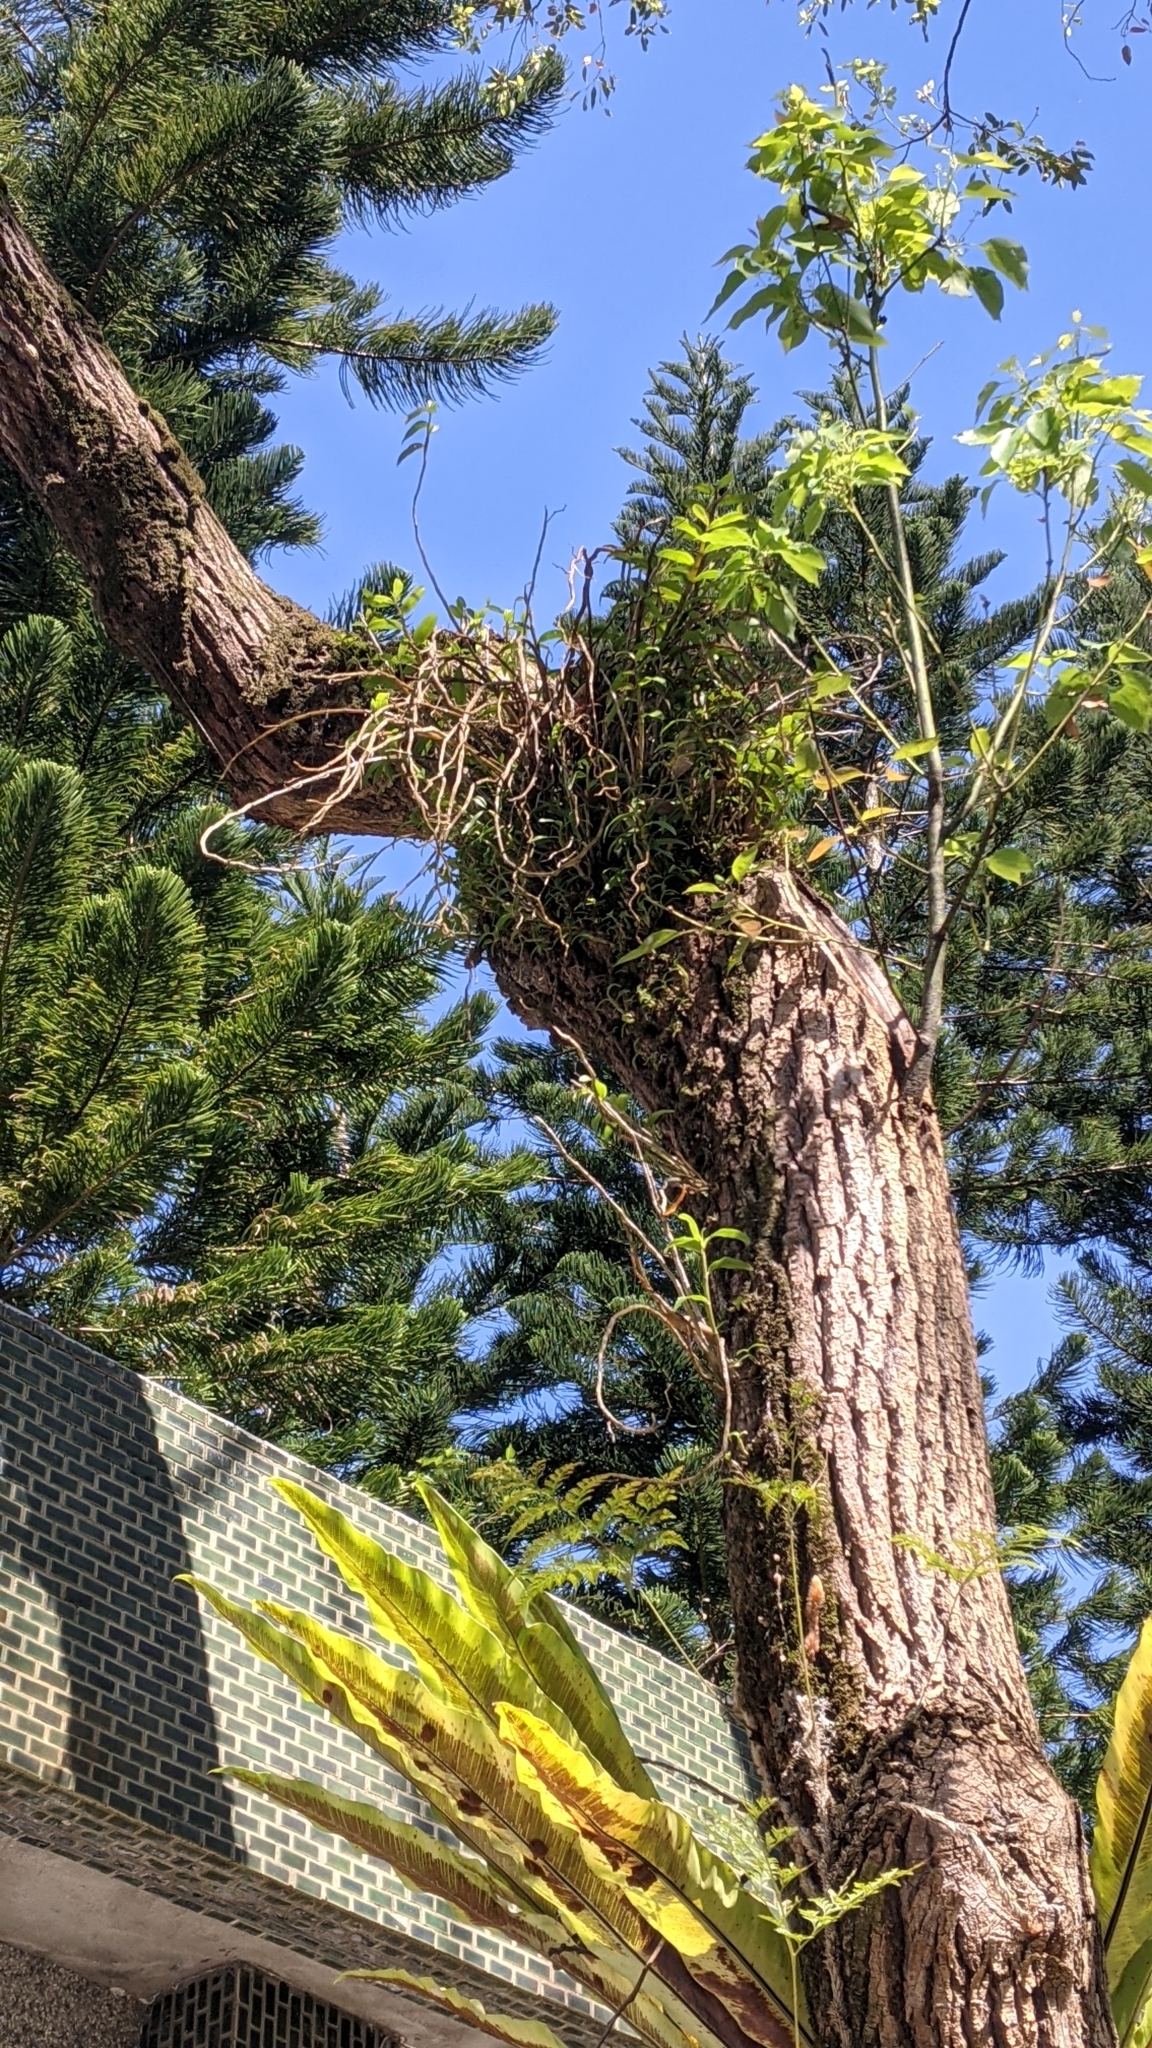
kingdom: Plantae
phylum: Tracheophyta
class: Liliopsida
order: Asparagales
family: Orchidaceae
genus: Dendrobium
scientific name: Dendrobium officinale
